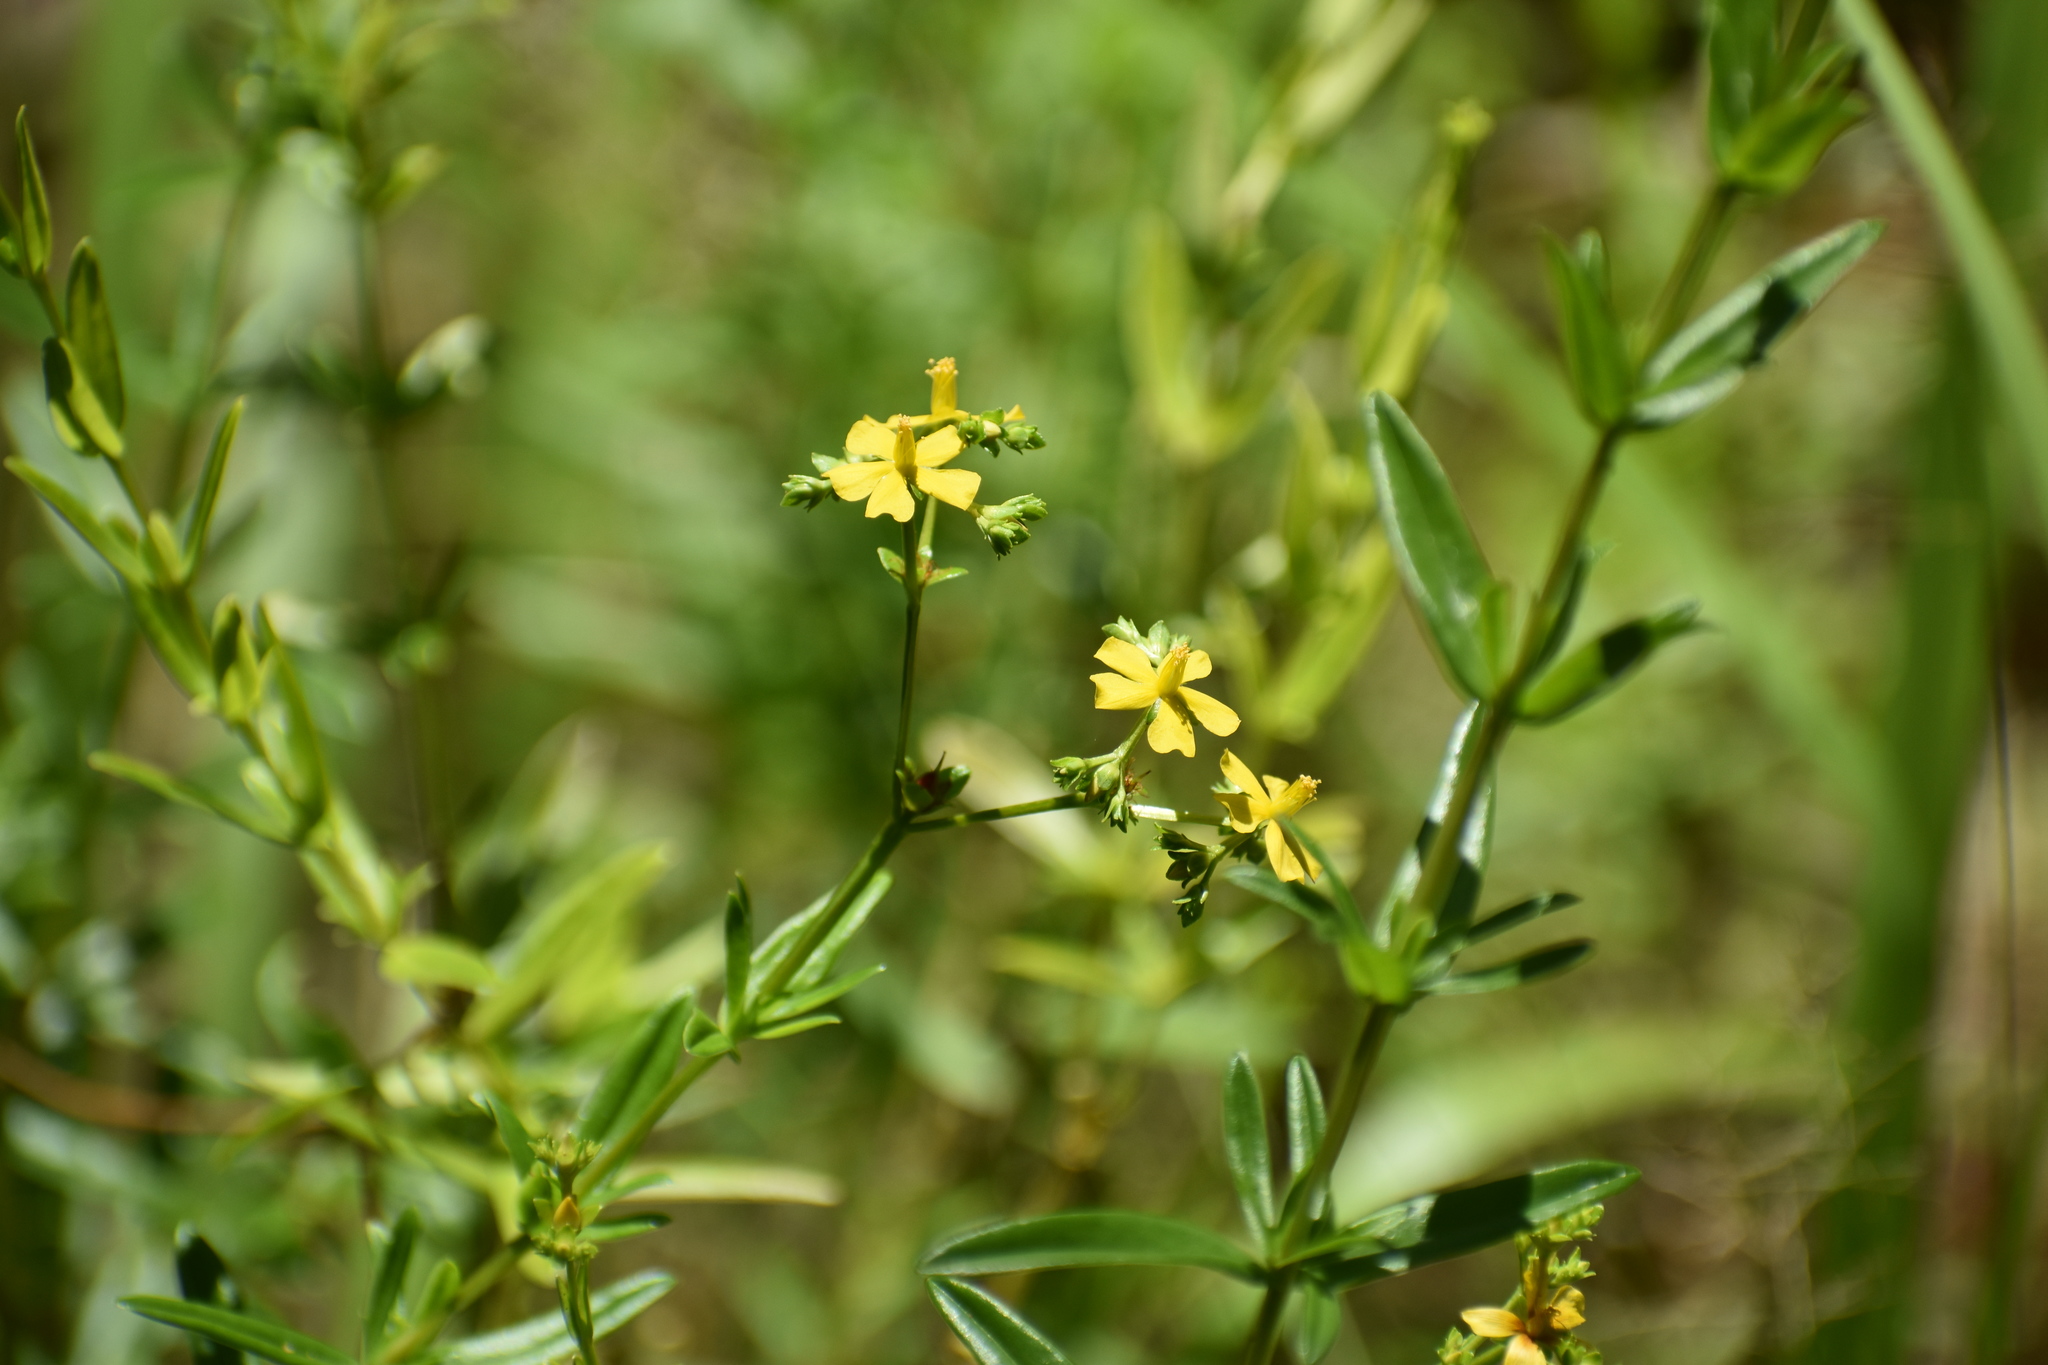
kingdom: Plantae
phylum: Tracheophyta
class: Magnoliopsida
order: Malpighiales
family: Hypericaceae
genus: Hypericum
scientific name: Hypericum cistifolium
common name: Round-pod st. john's-wort
